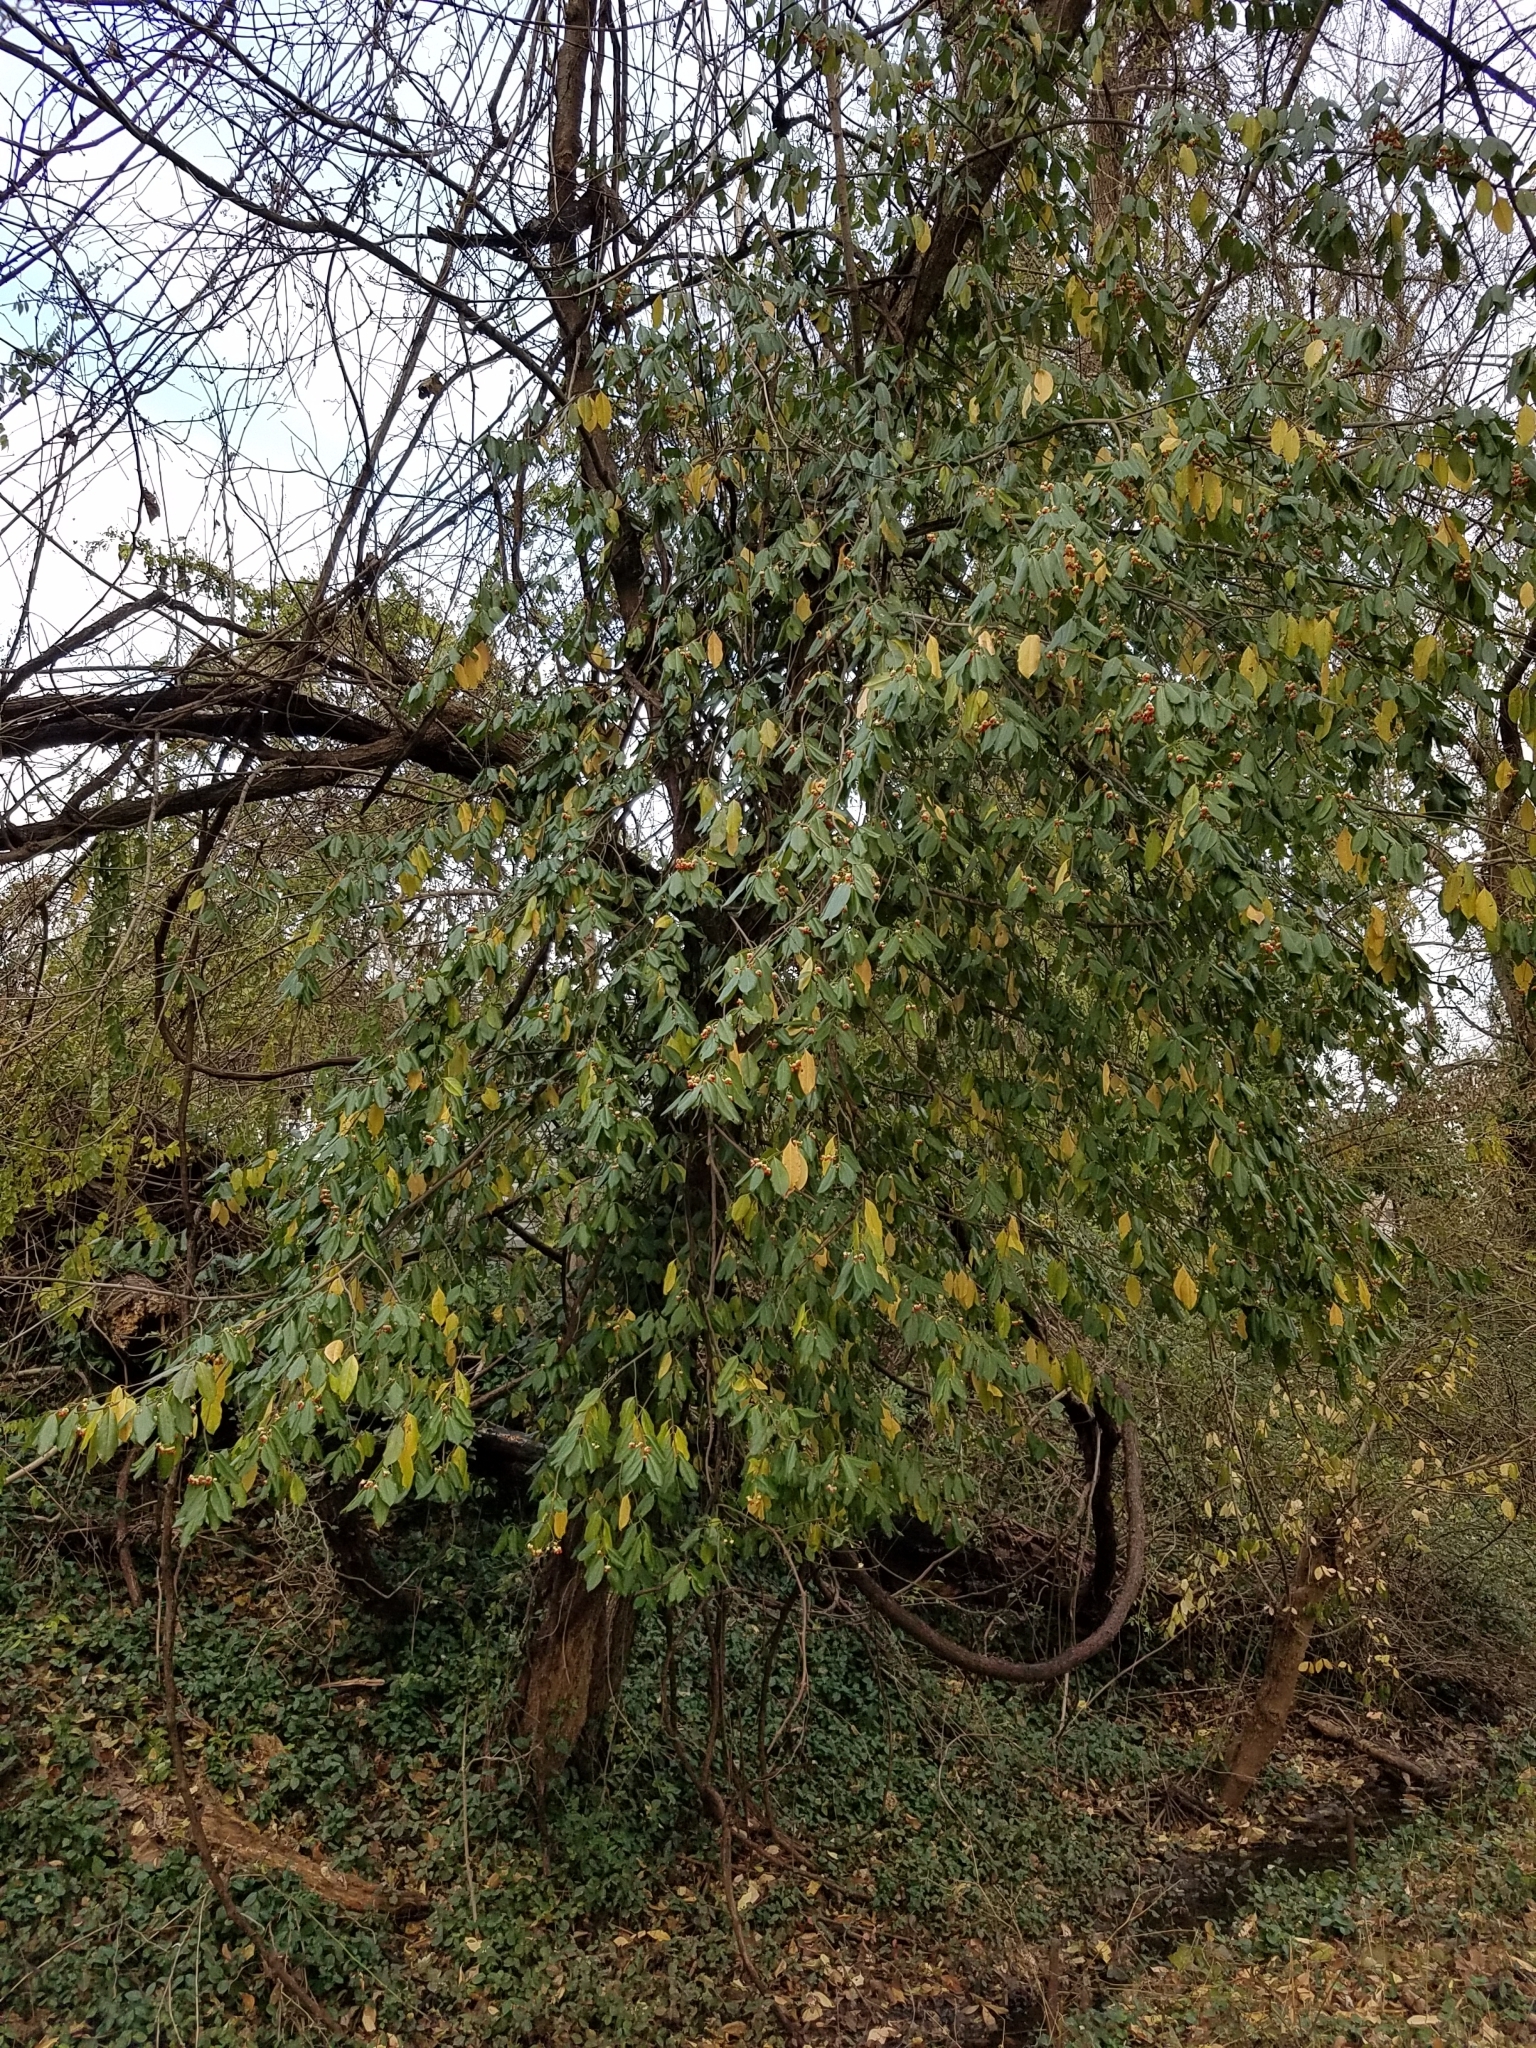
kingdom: Plantae
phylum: Tracheophyta
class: Magnoliopsida
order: Celastrales
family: Celastraceae
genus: Euonymus
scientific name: Euonymus fortunei
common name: Climbing euonymus
